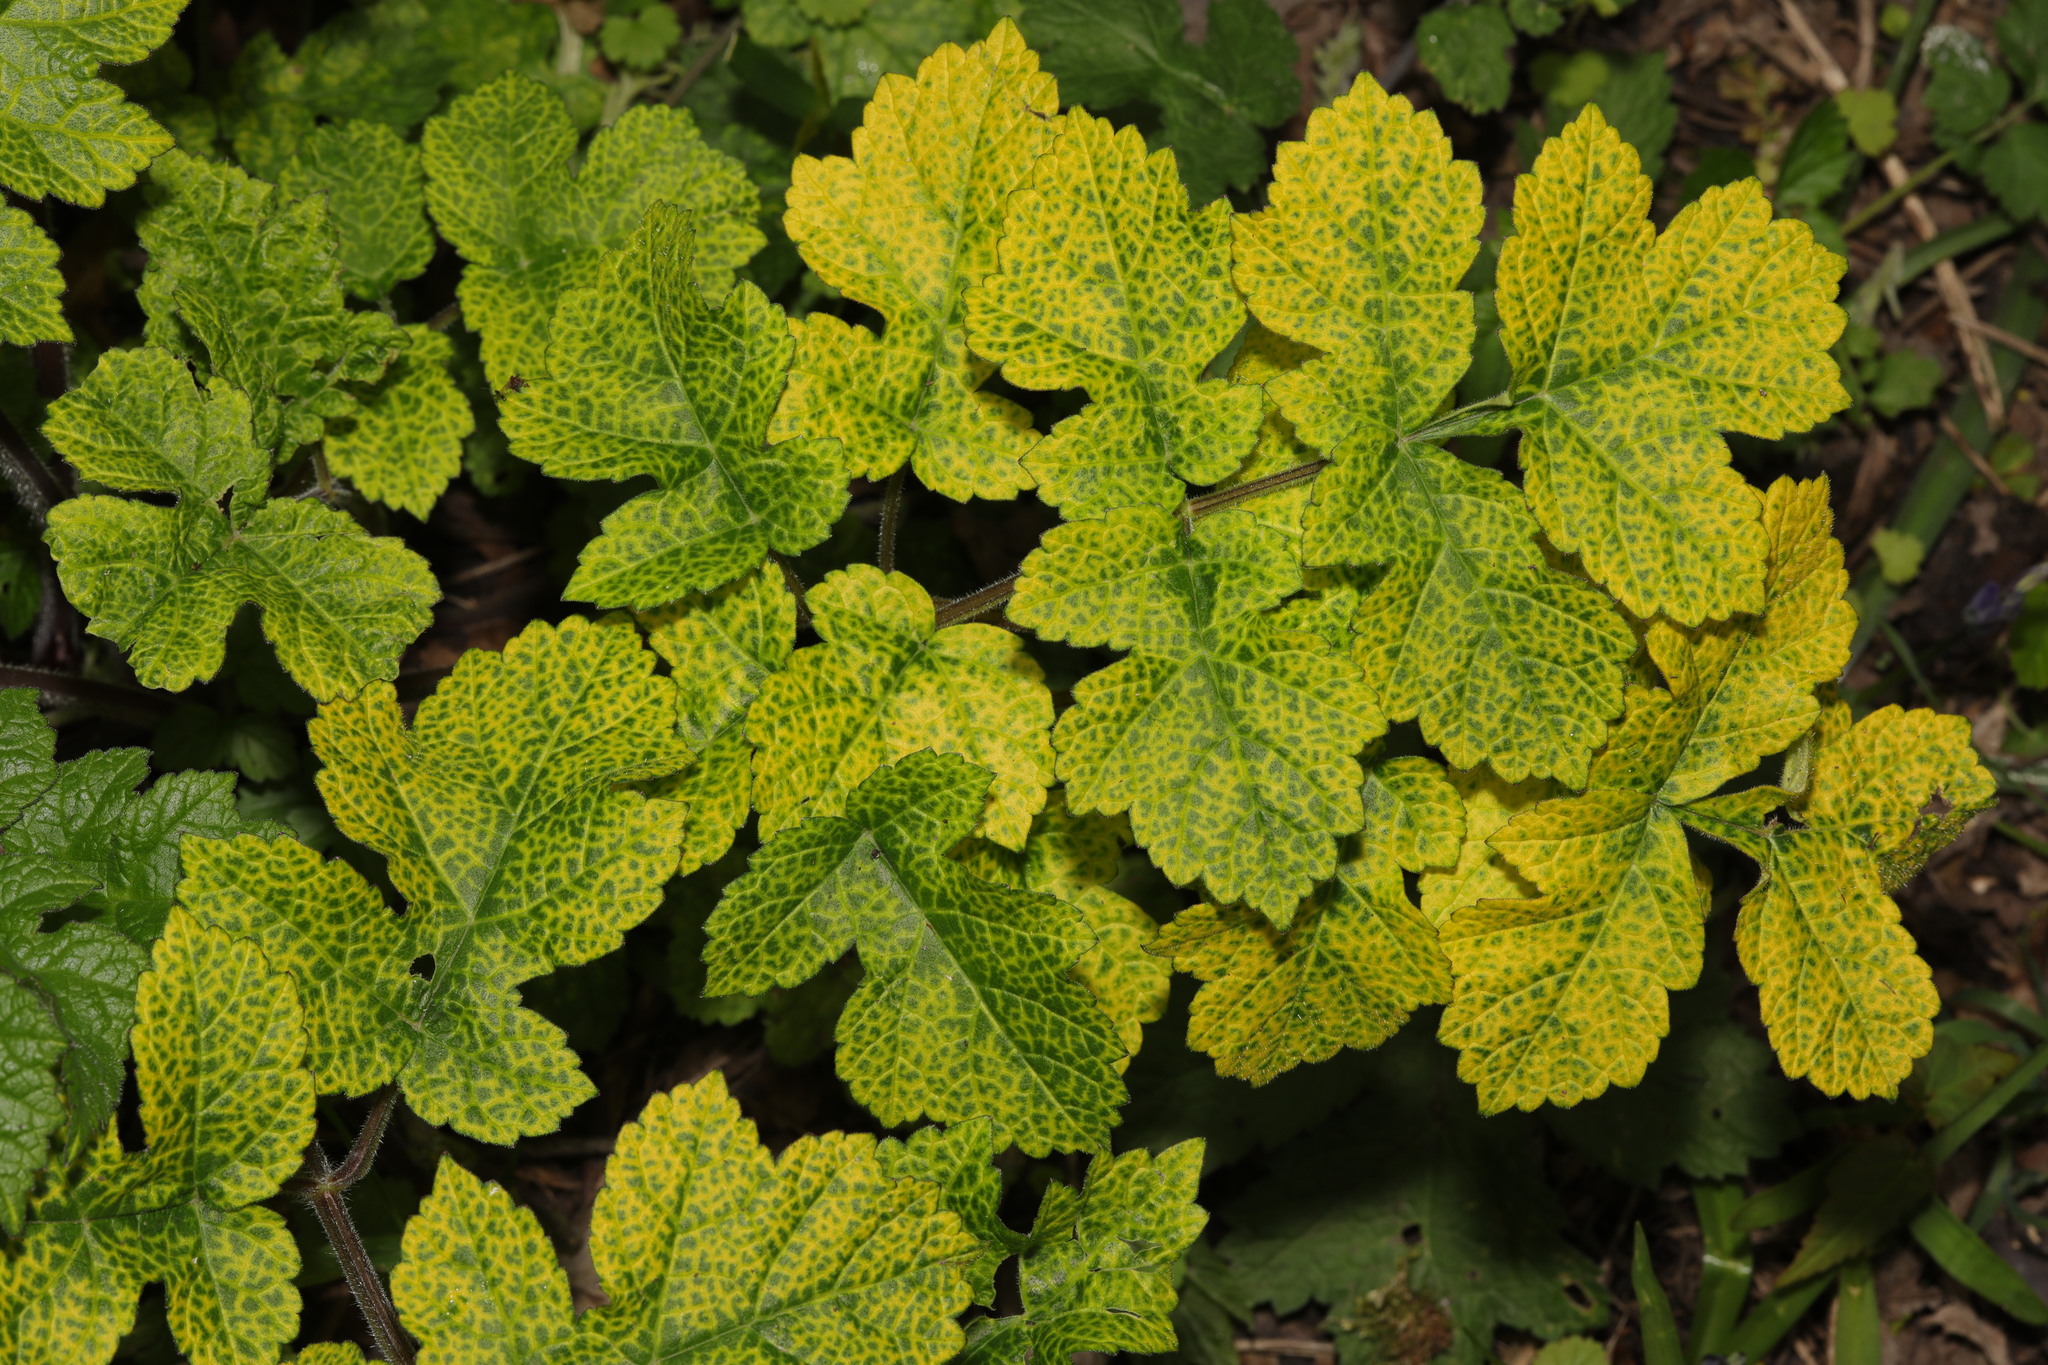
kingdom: Plantae
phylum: Tracheophyta
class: Magnoliopsida
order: Apiales
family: Apiaceae
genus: Heracleum
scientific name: Heracleum sphondylium
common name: Hogweed
